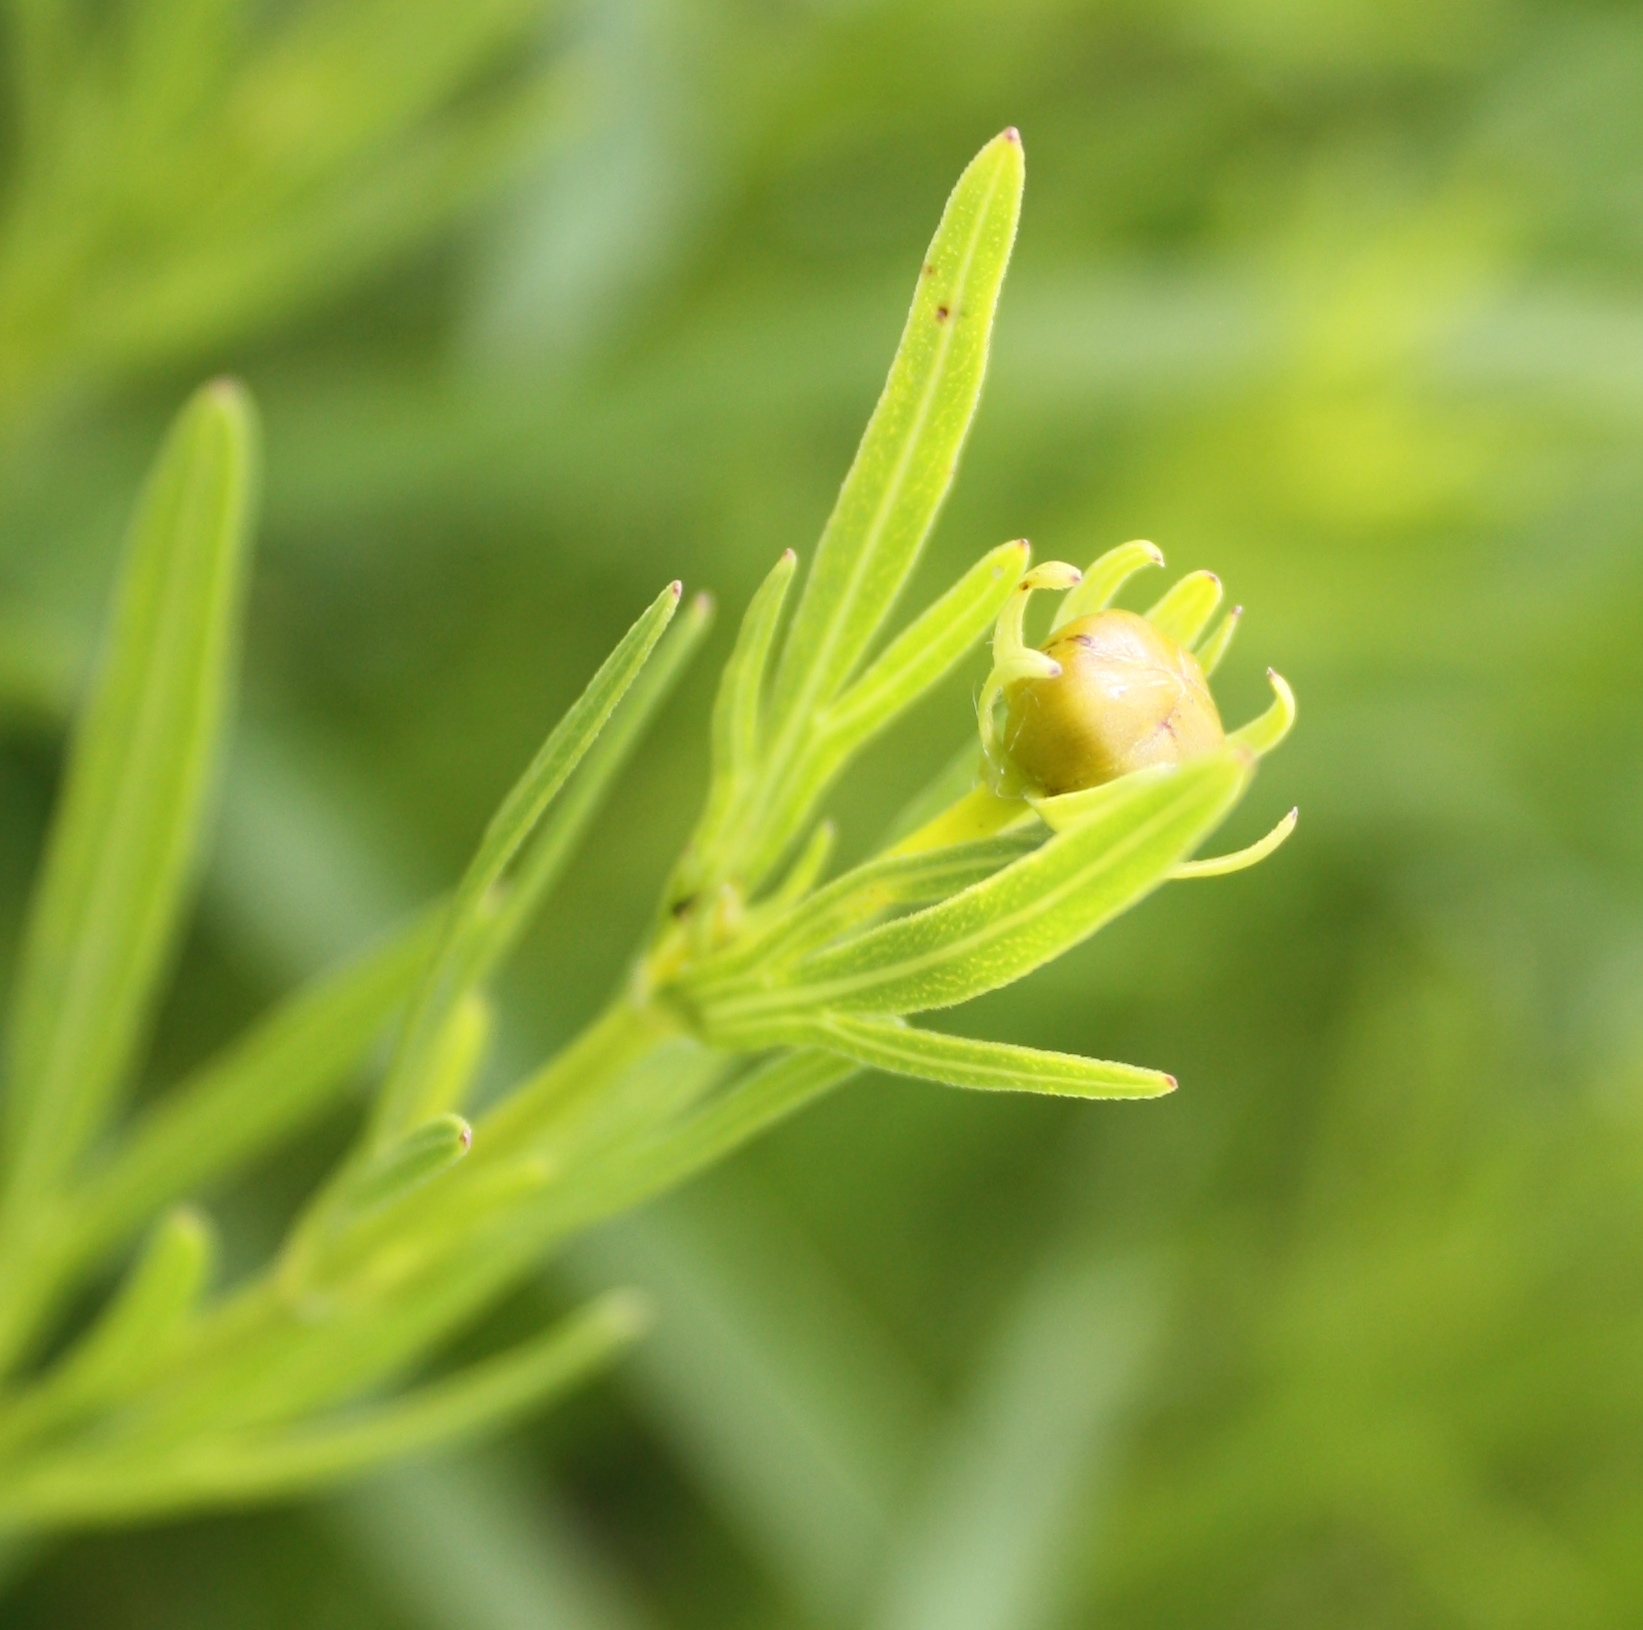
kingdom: Plantae
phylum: Tracheophyta
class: Magnoliopsida
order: Asterales
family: Asteraceae
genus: Coreopsis
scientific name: Coreopsis palmata
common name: Prairie coreopsis
